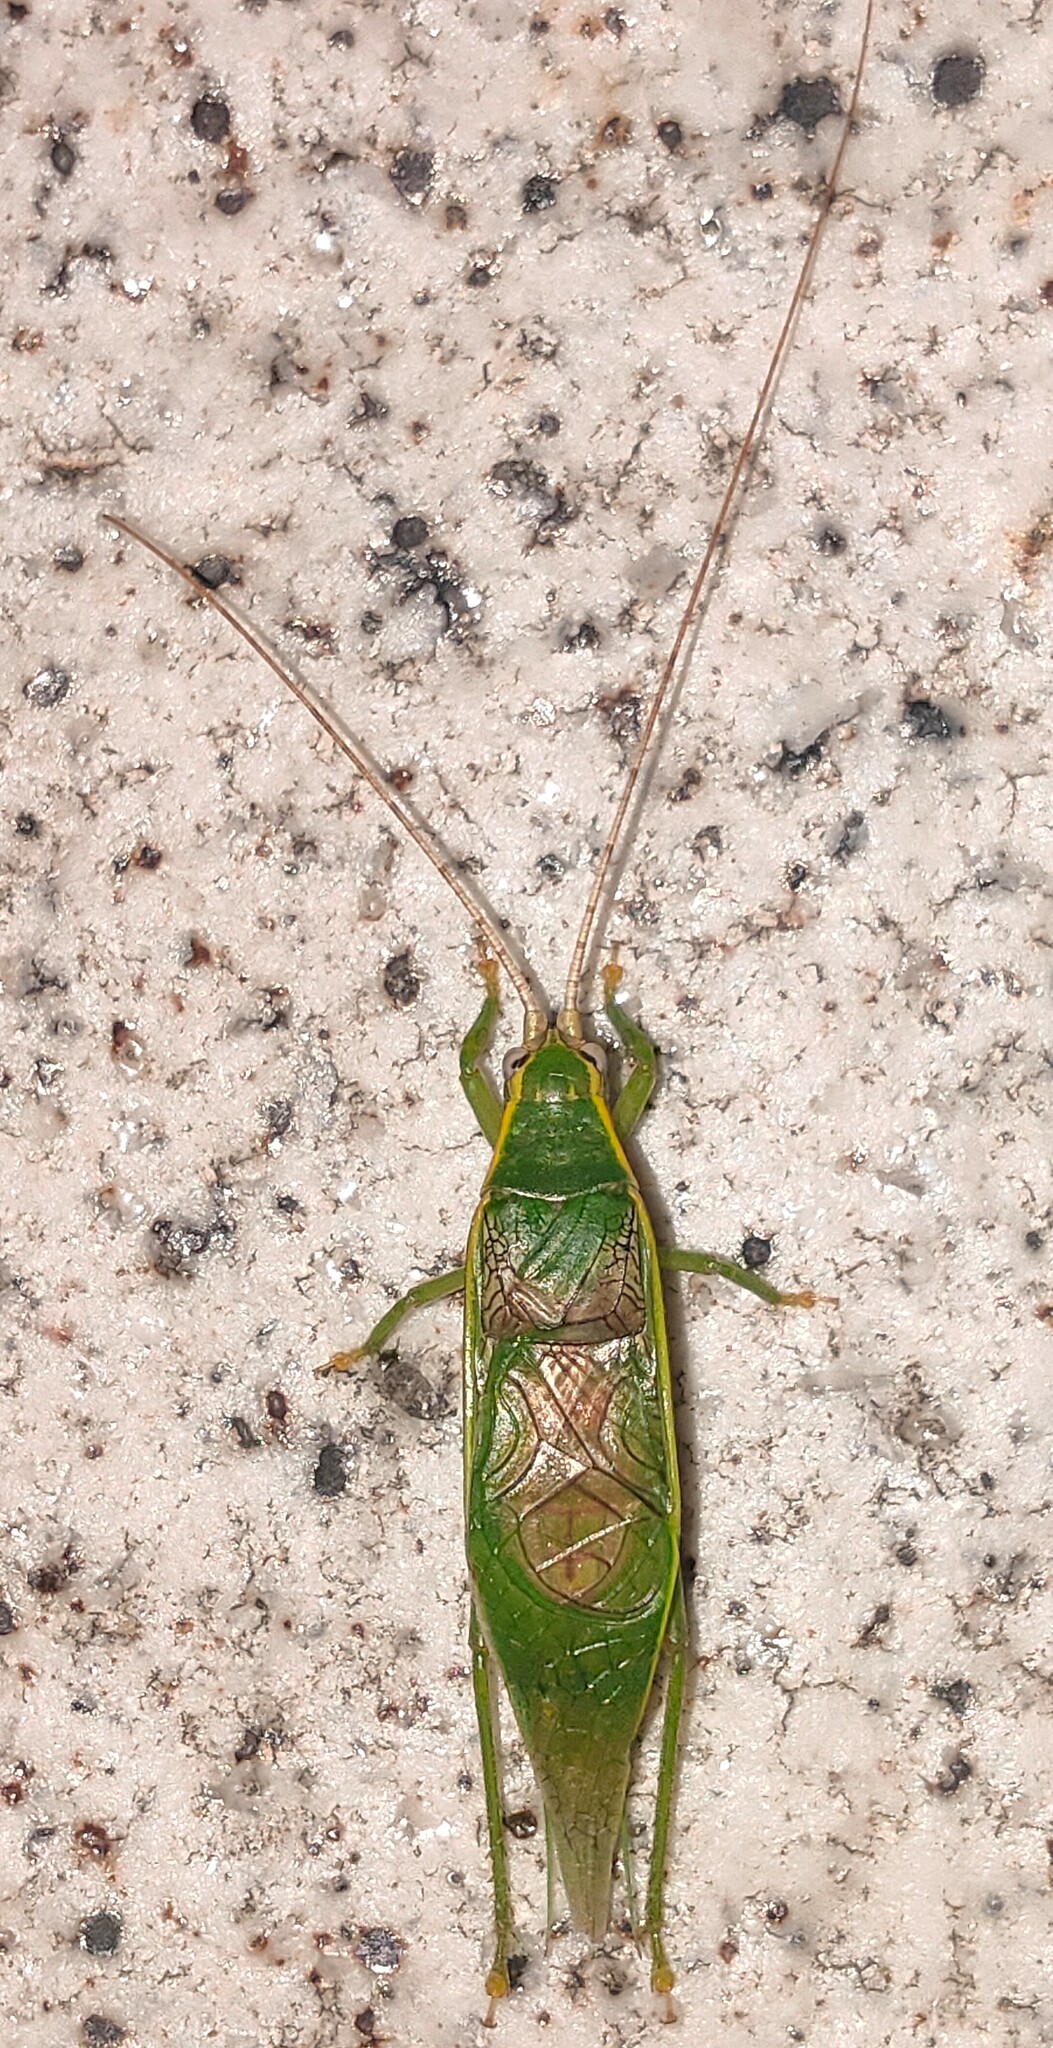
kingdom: Animalia
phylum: Arthropoda
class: Insecta
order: Orthoptera
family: Gryllidae
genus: Truljalia
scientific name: Truljalia hibinonis
